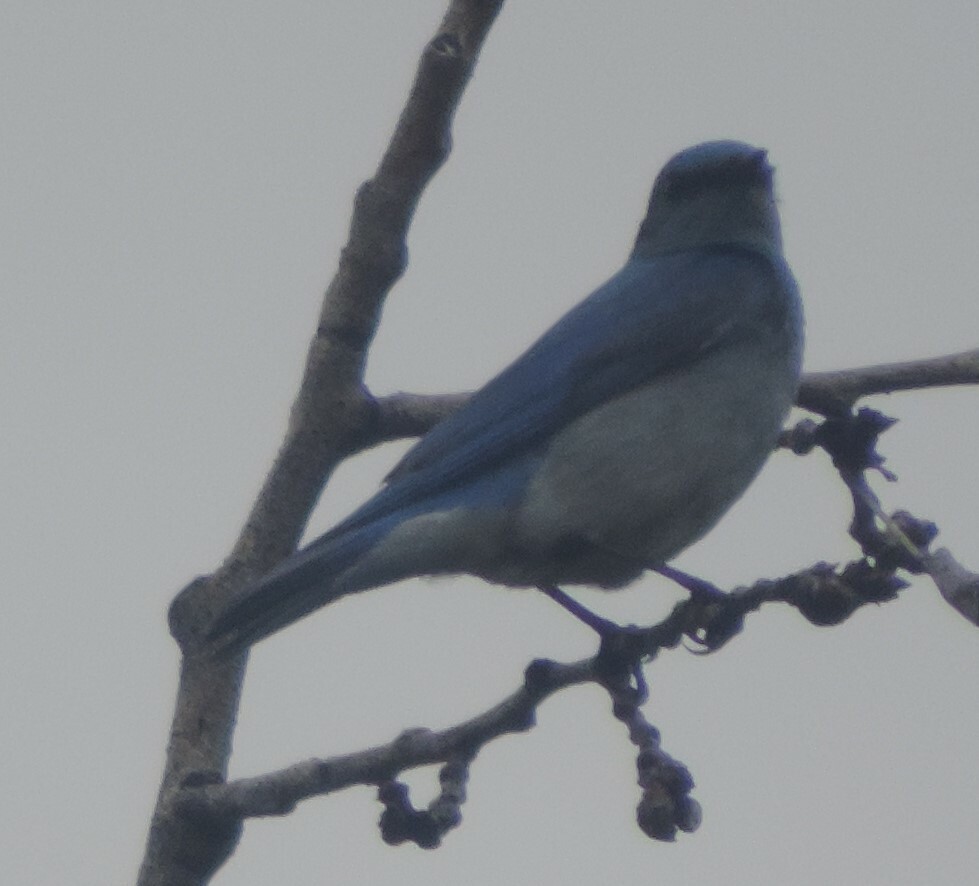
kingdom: Animalia
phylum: Chordata
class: Aves
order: Passeriformes
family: Turdidae
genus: Sialia
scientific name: Sialia currucoides
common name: Mountain bluebird
